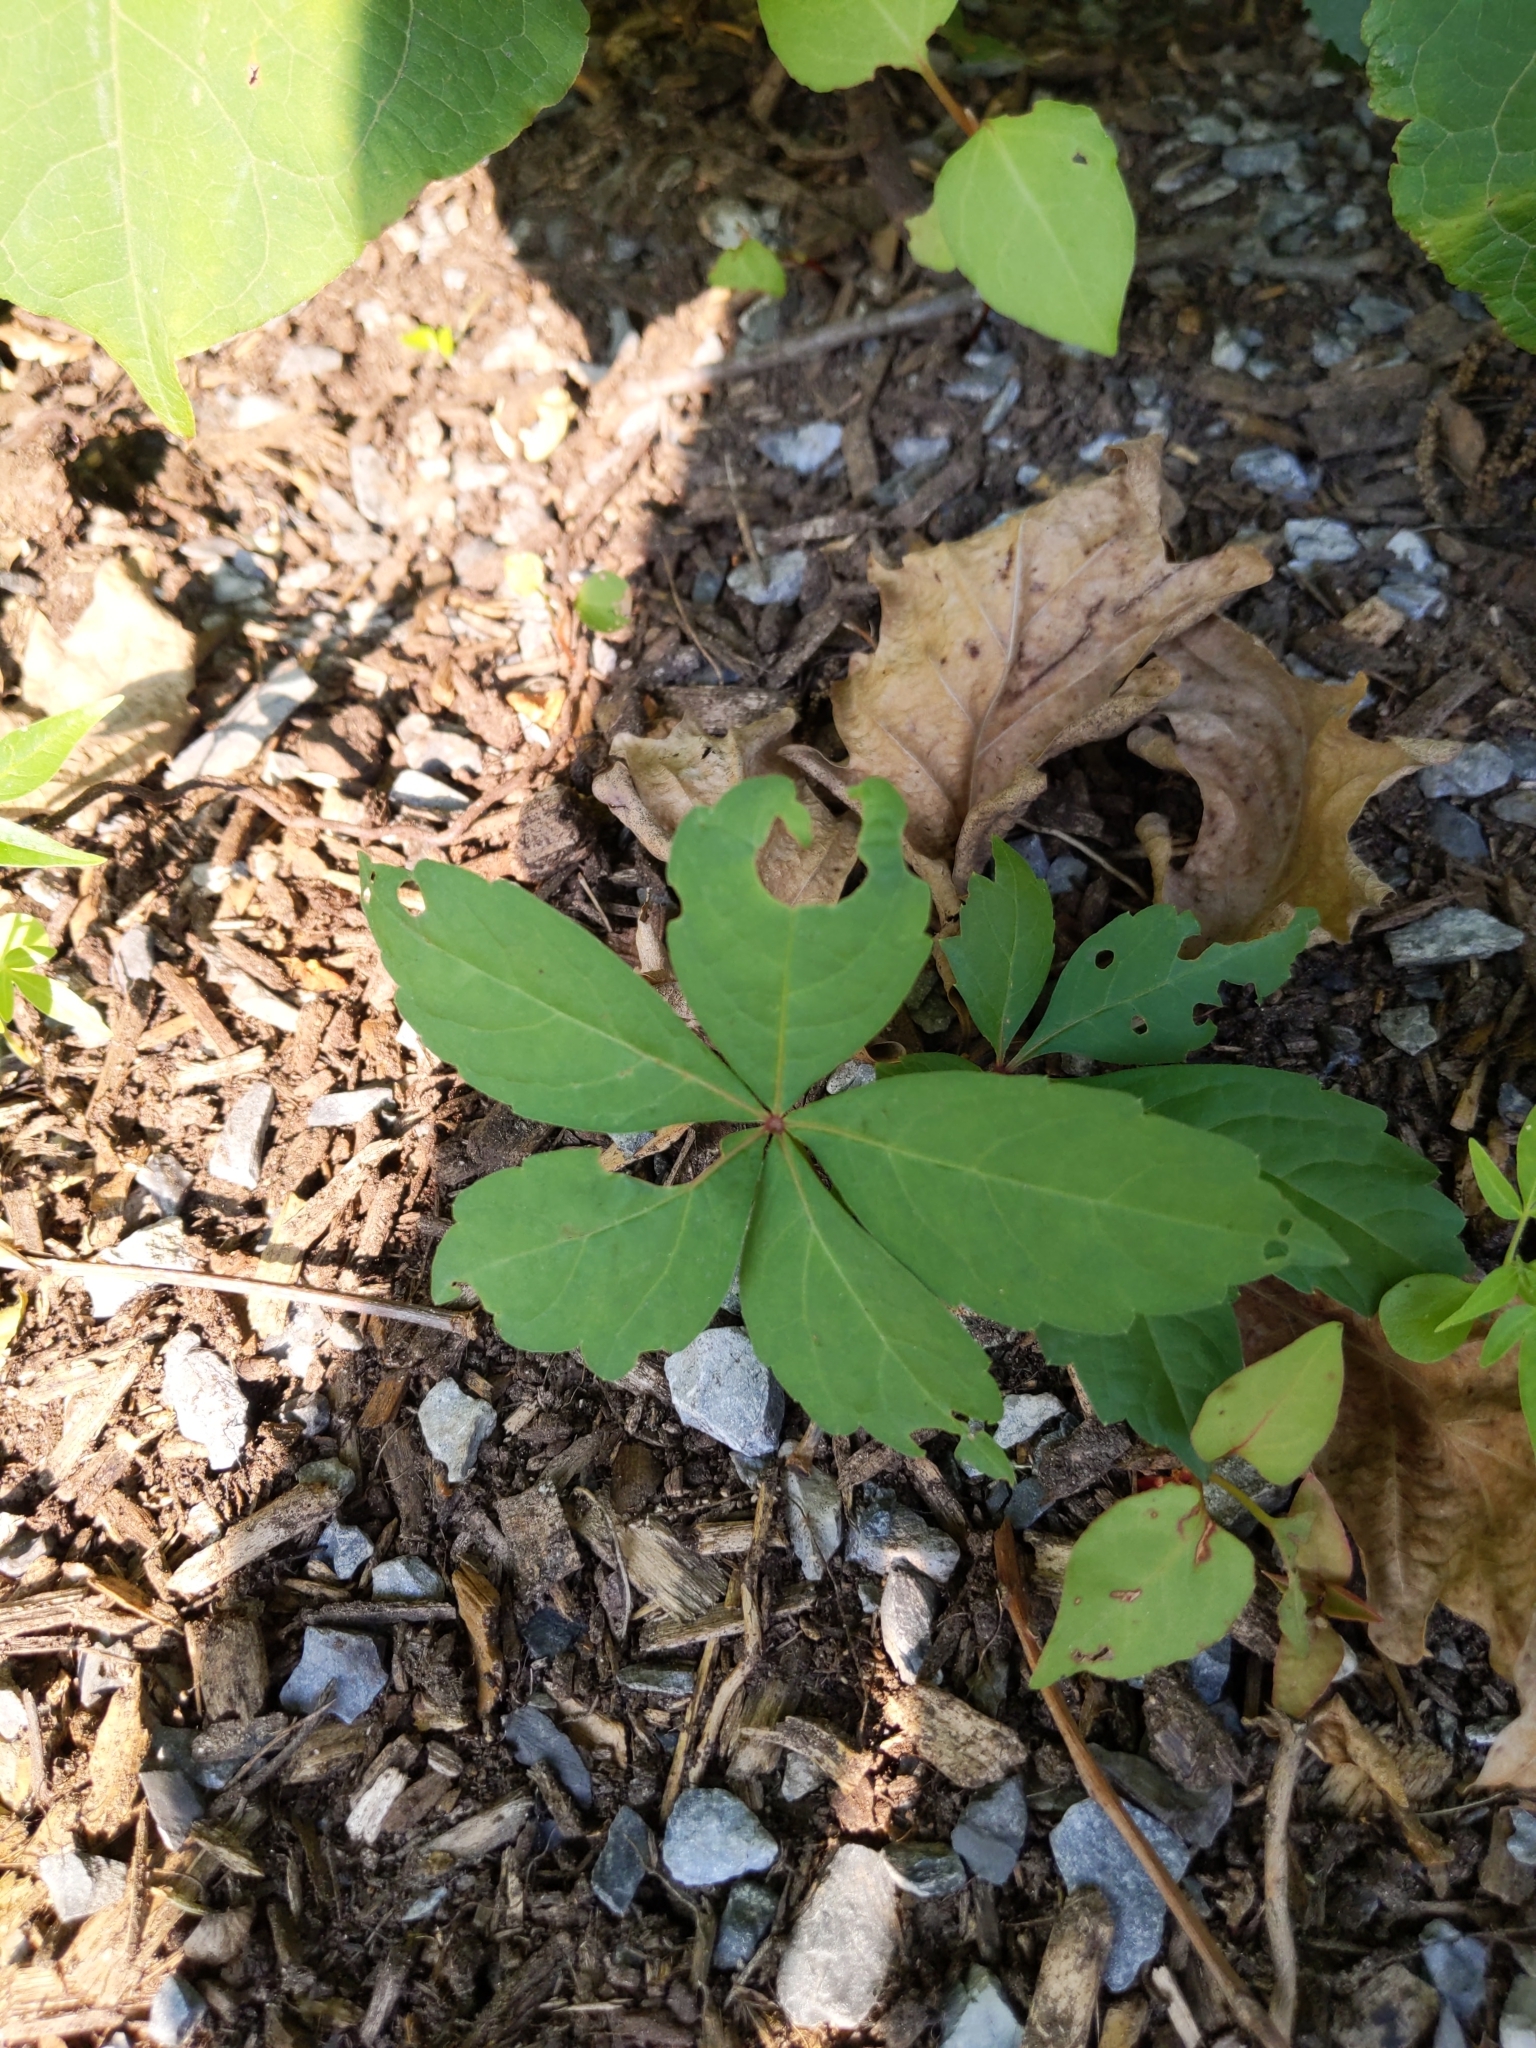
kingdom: Plantae
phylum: Tracheophyta
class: Magnoliopsida
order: Vitales
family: Vitaceae
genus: Parthenocissus
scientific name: Parthenocissus quinquefolia
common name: Virginia-creeper
